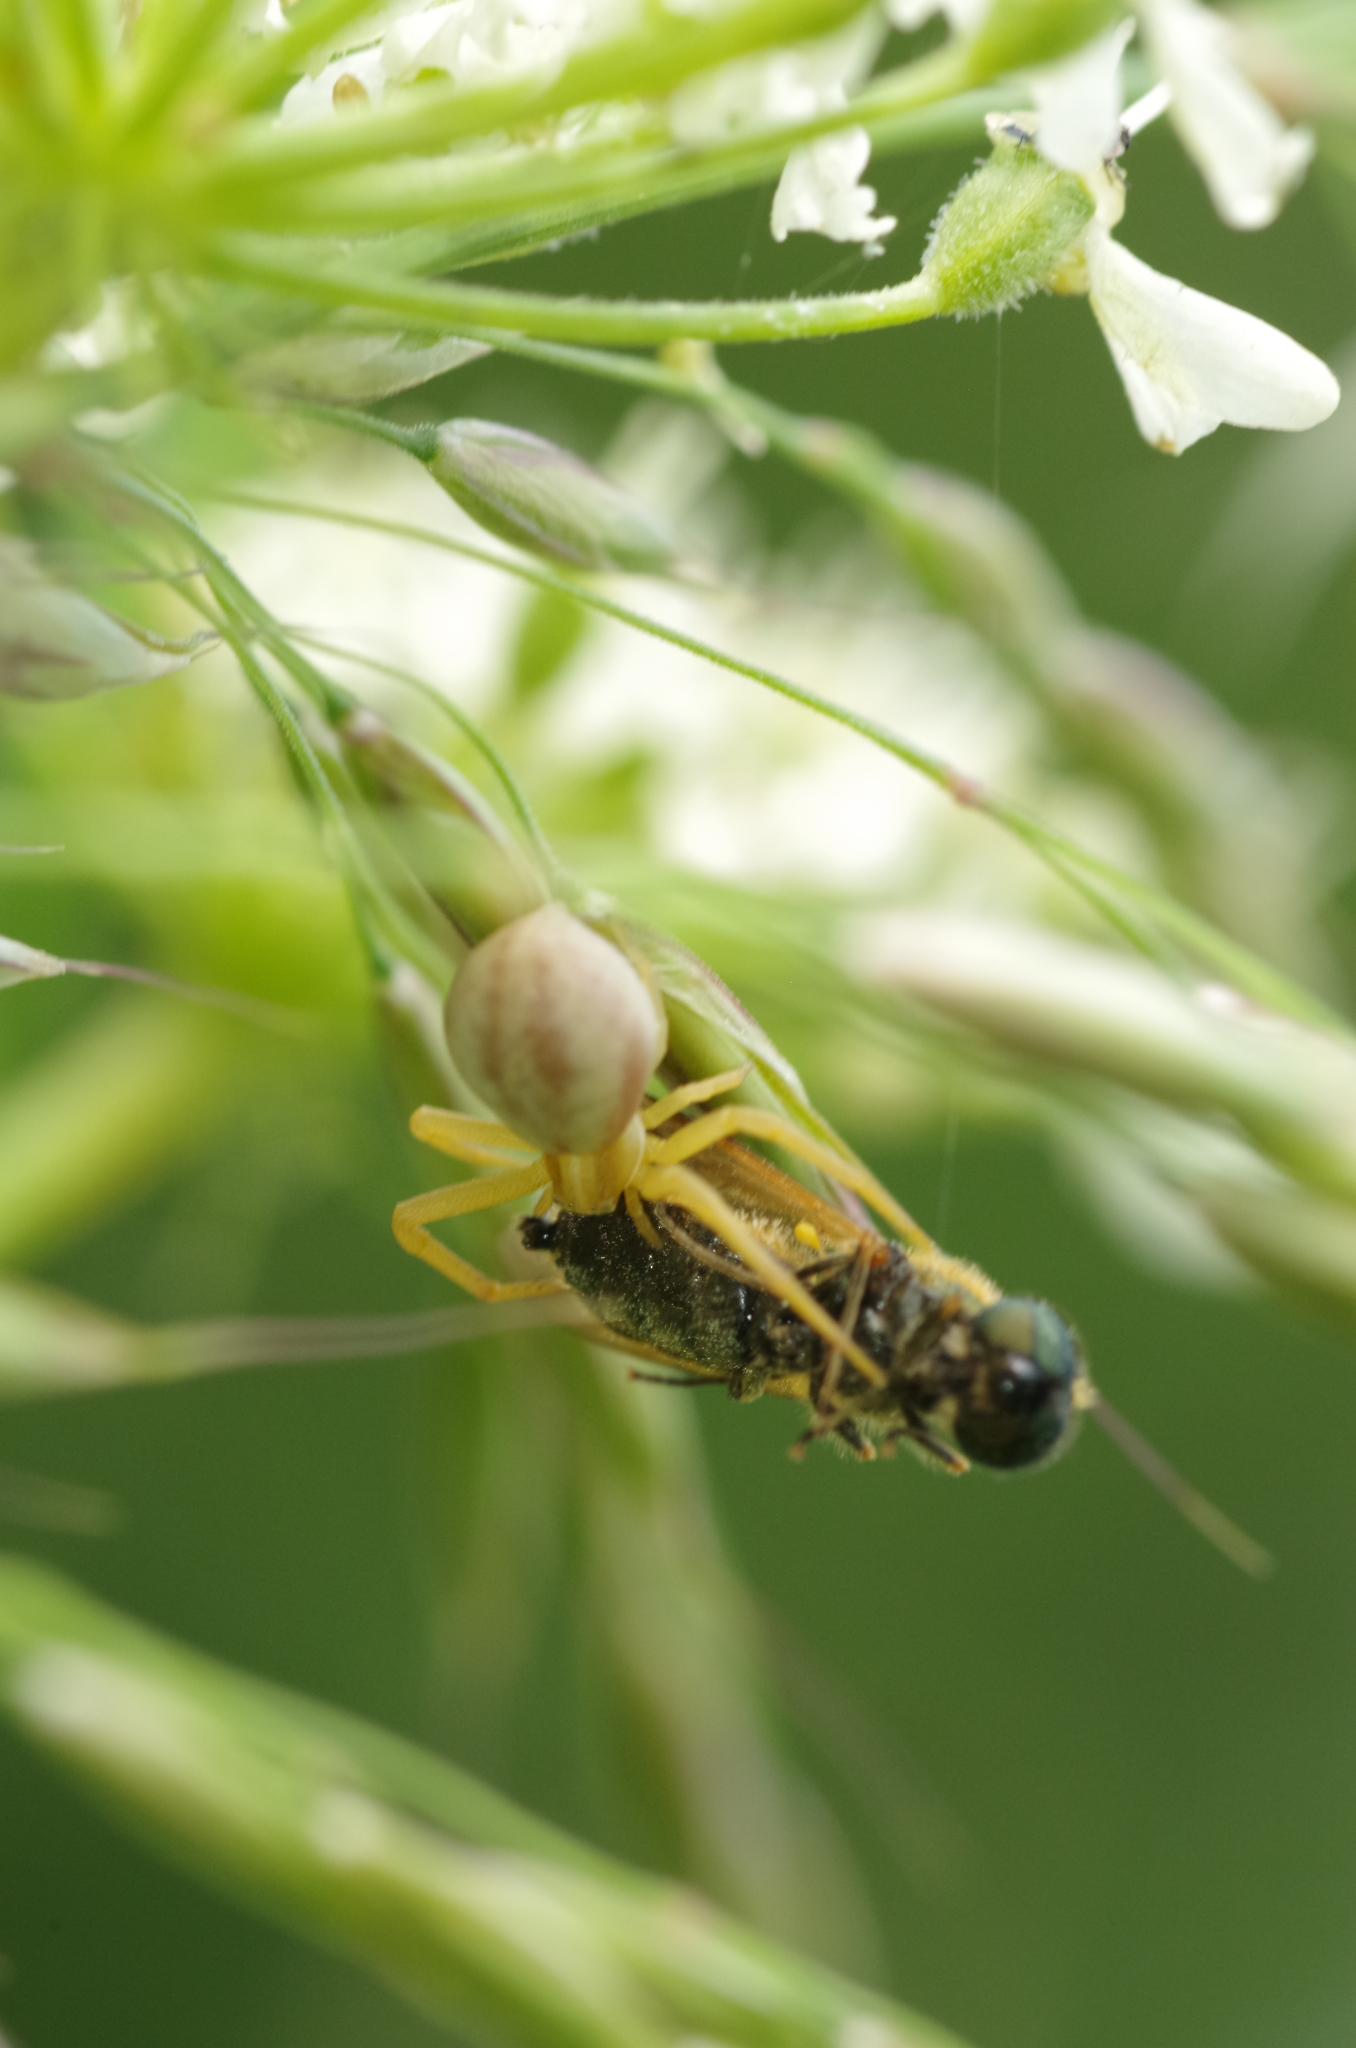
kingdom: Animalia
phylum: Arthropoda
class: Arachnida
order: Araneae
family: Thomisidae
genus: Runcinia
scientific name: Runcinia grammica
